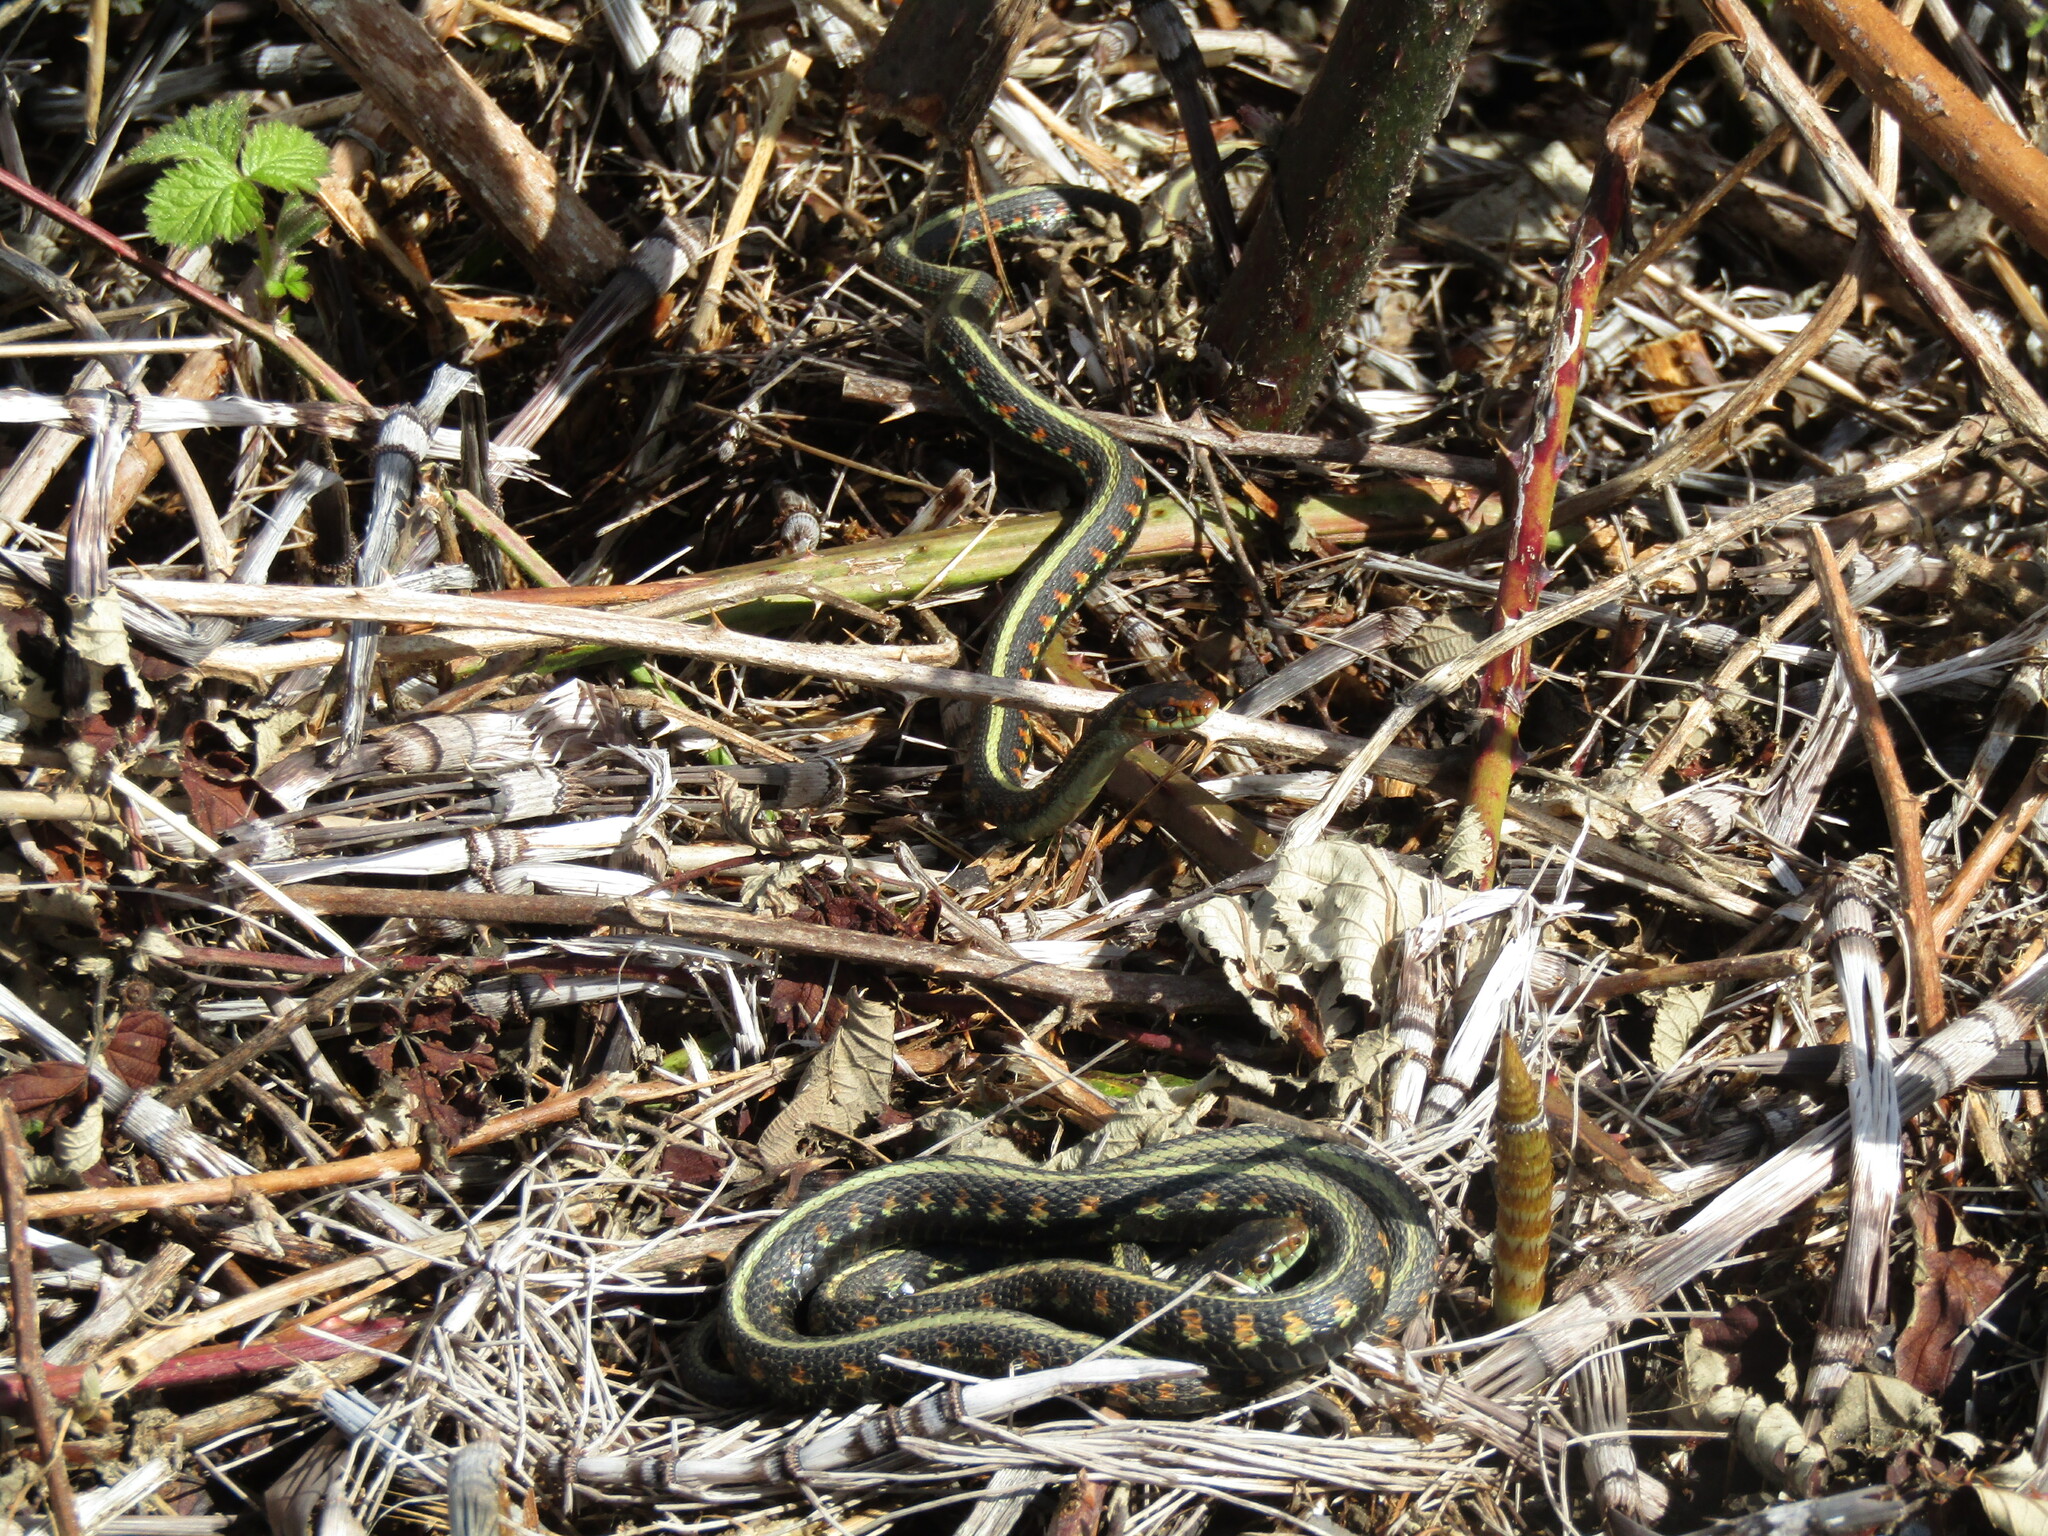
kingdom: Animalia
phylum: Chordata
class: Squamata
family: Colubridae
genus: Thamnophis
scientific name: Thamnophis sirtalis
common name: Common garter snake
